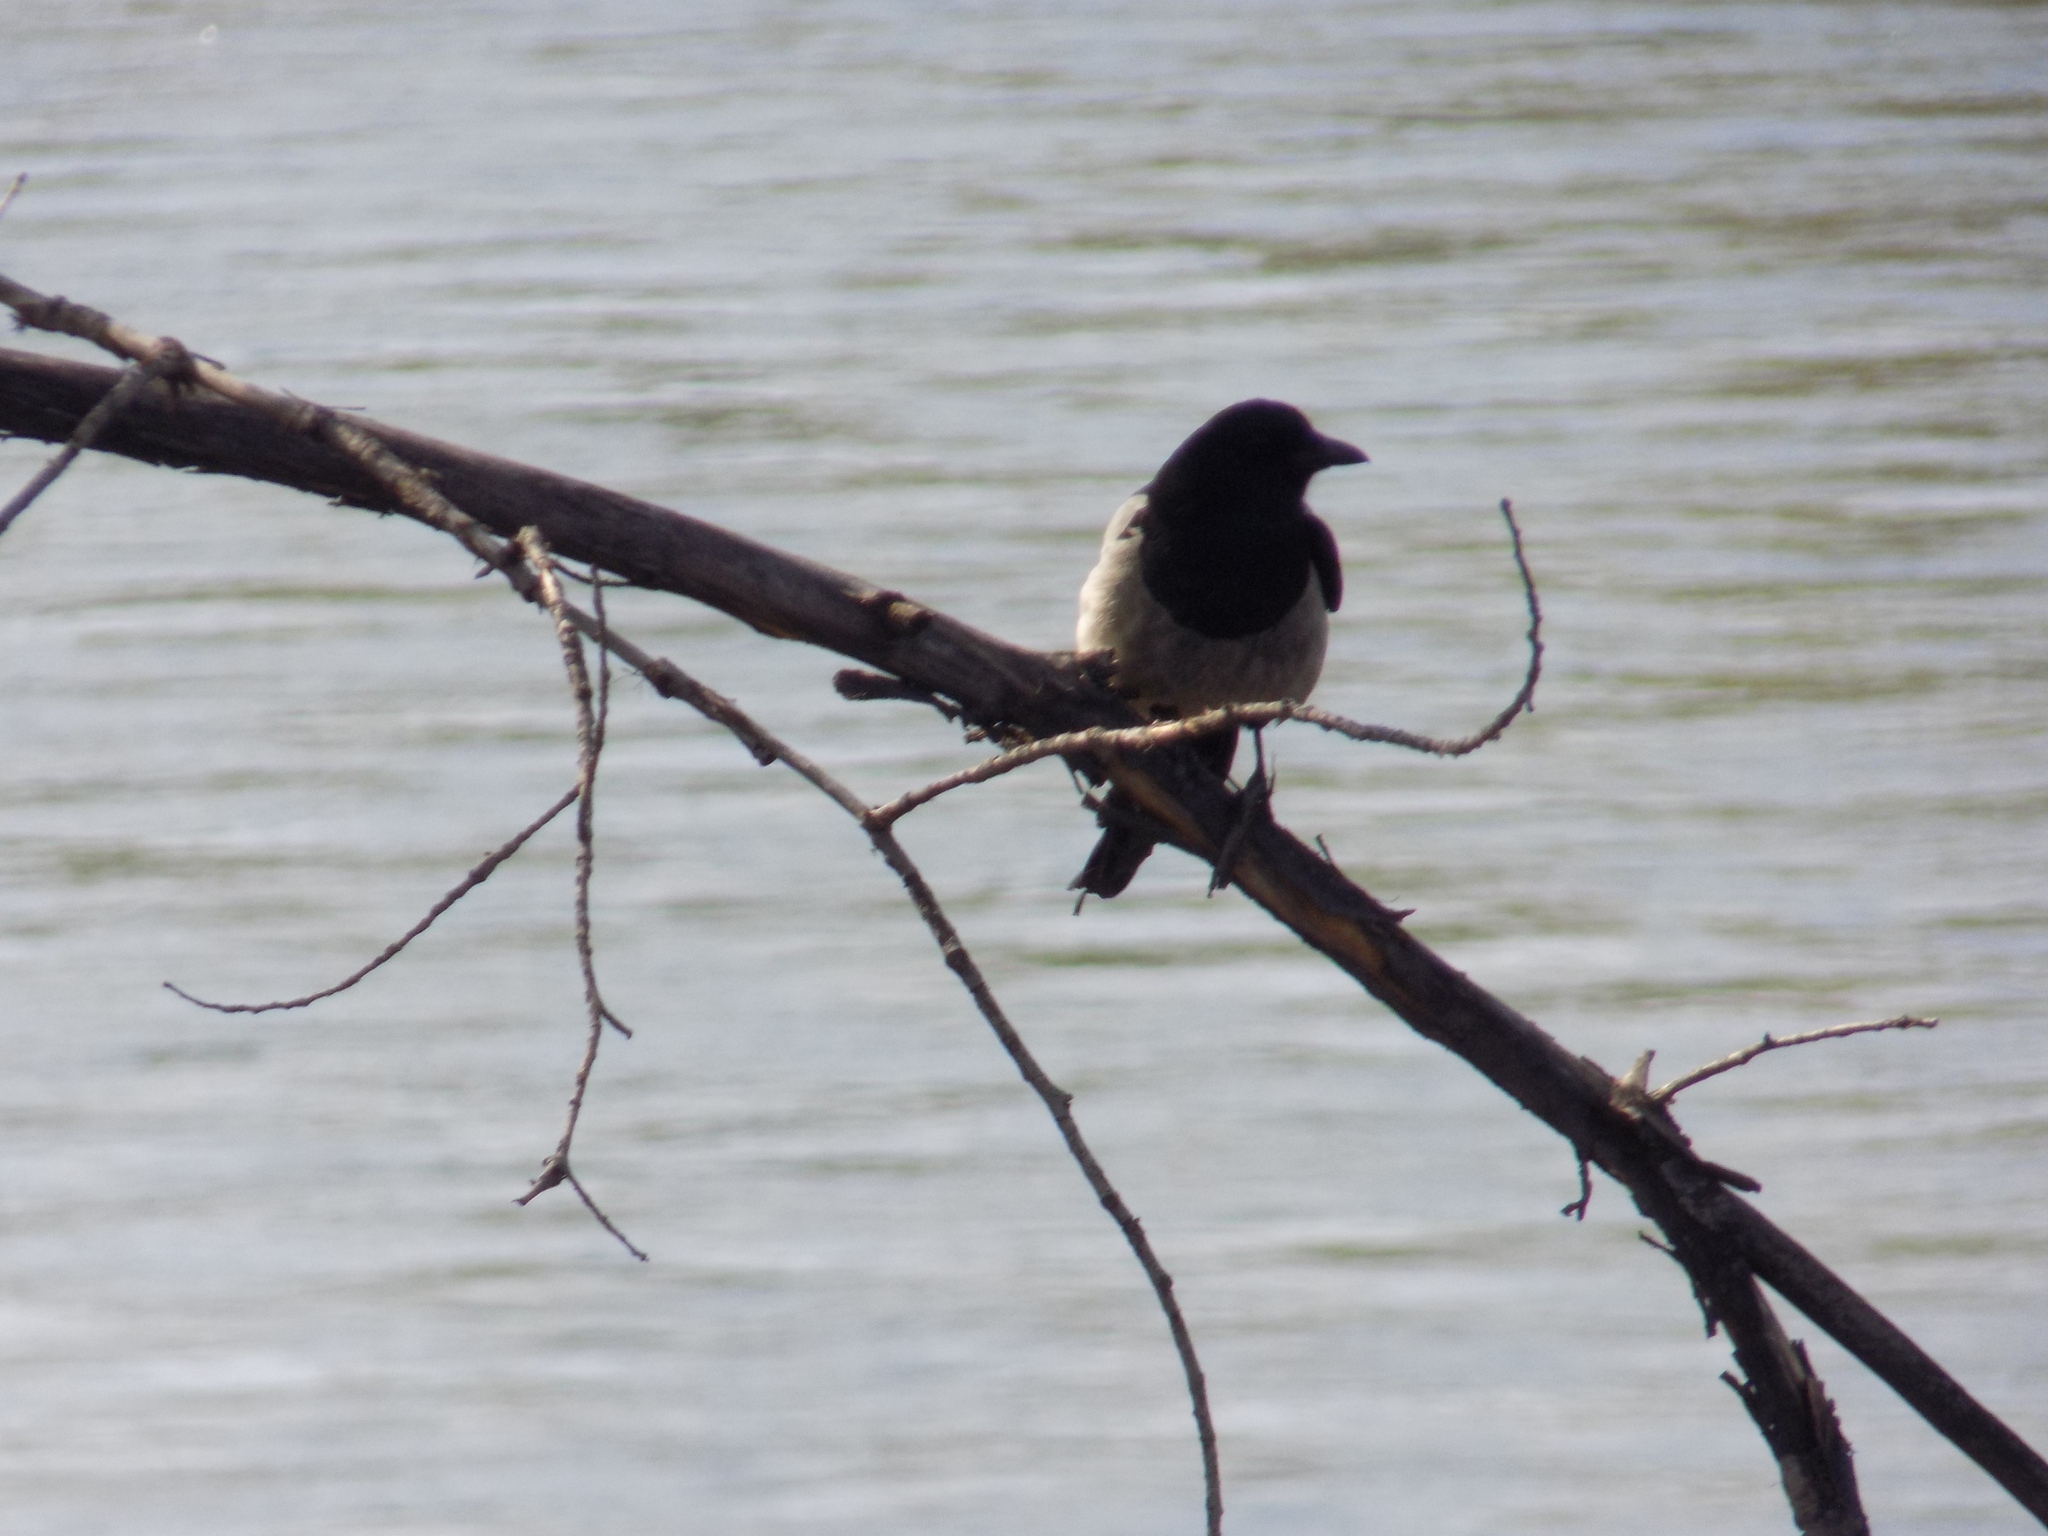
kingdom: Animalia
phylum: Chordata
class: Aves
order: Passeriformes
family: Corvidae
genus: Pica
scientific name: Pica pica
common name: Eurasian magpie
